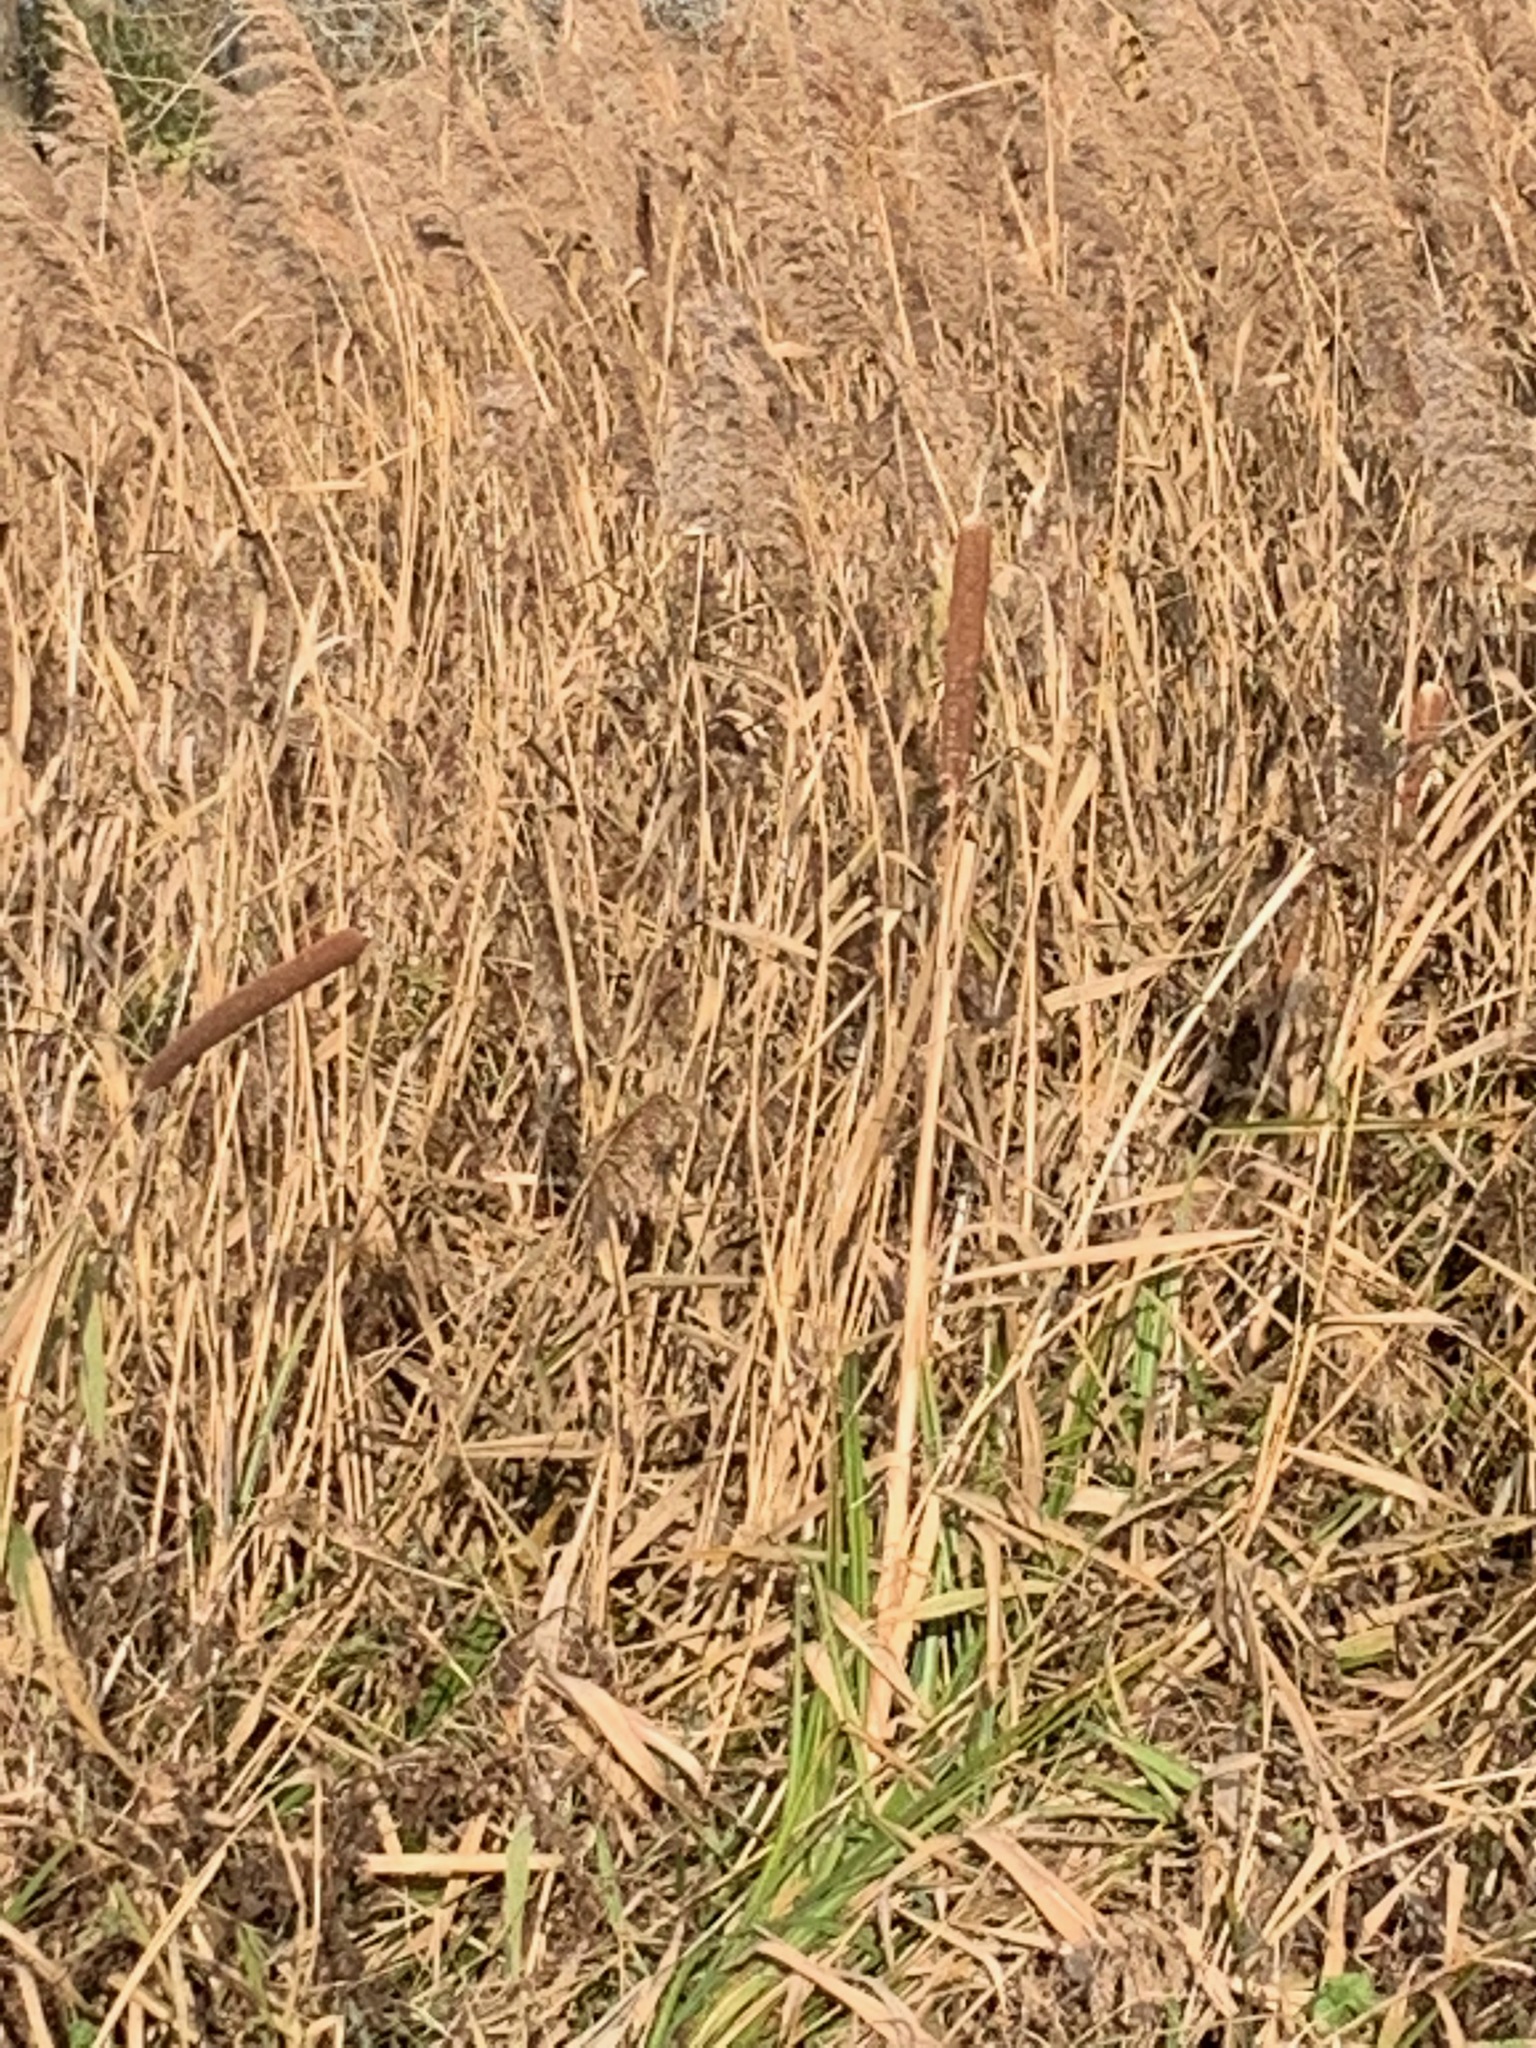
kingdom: Plantae
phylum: Tracheophyta
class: Liliopsida
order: Poales
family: Typhaceae
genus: Typha
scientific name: Typha latifolia
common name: Broadleaf cattail
